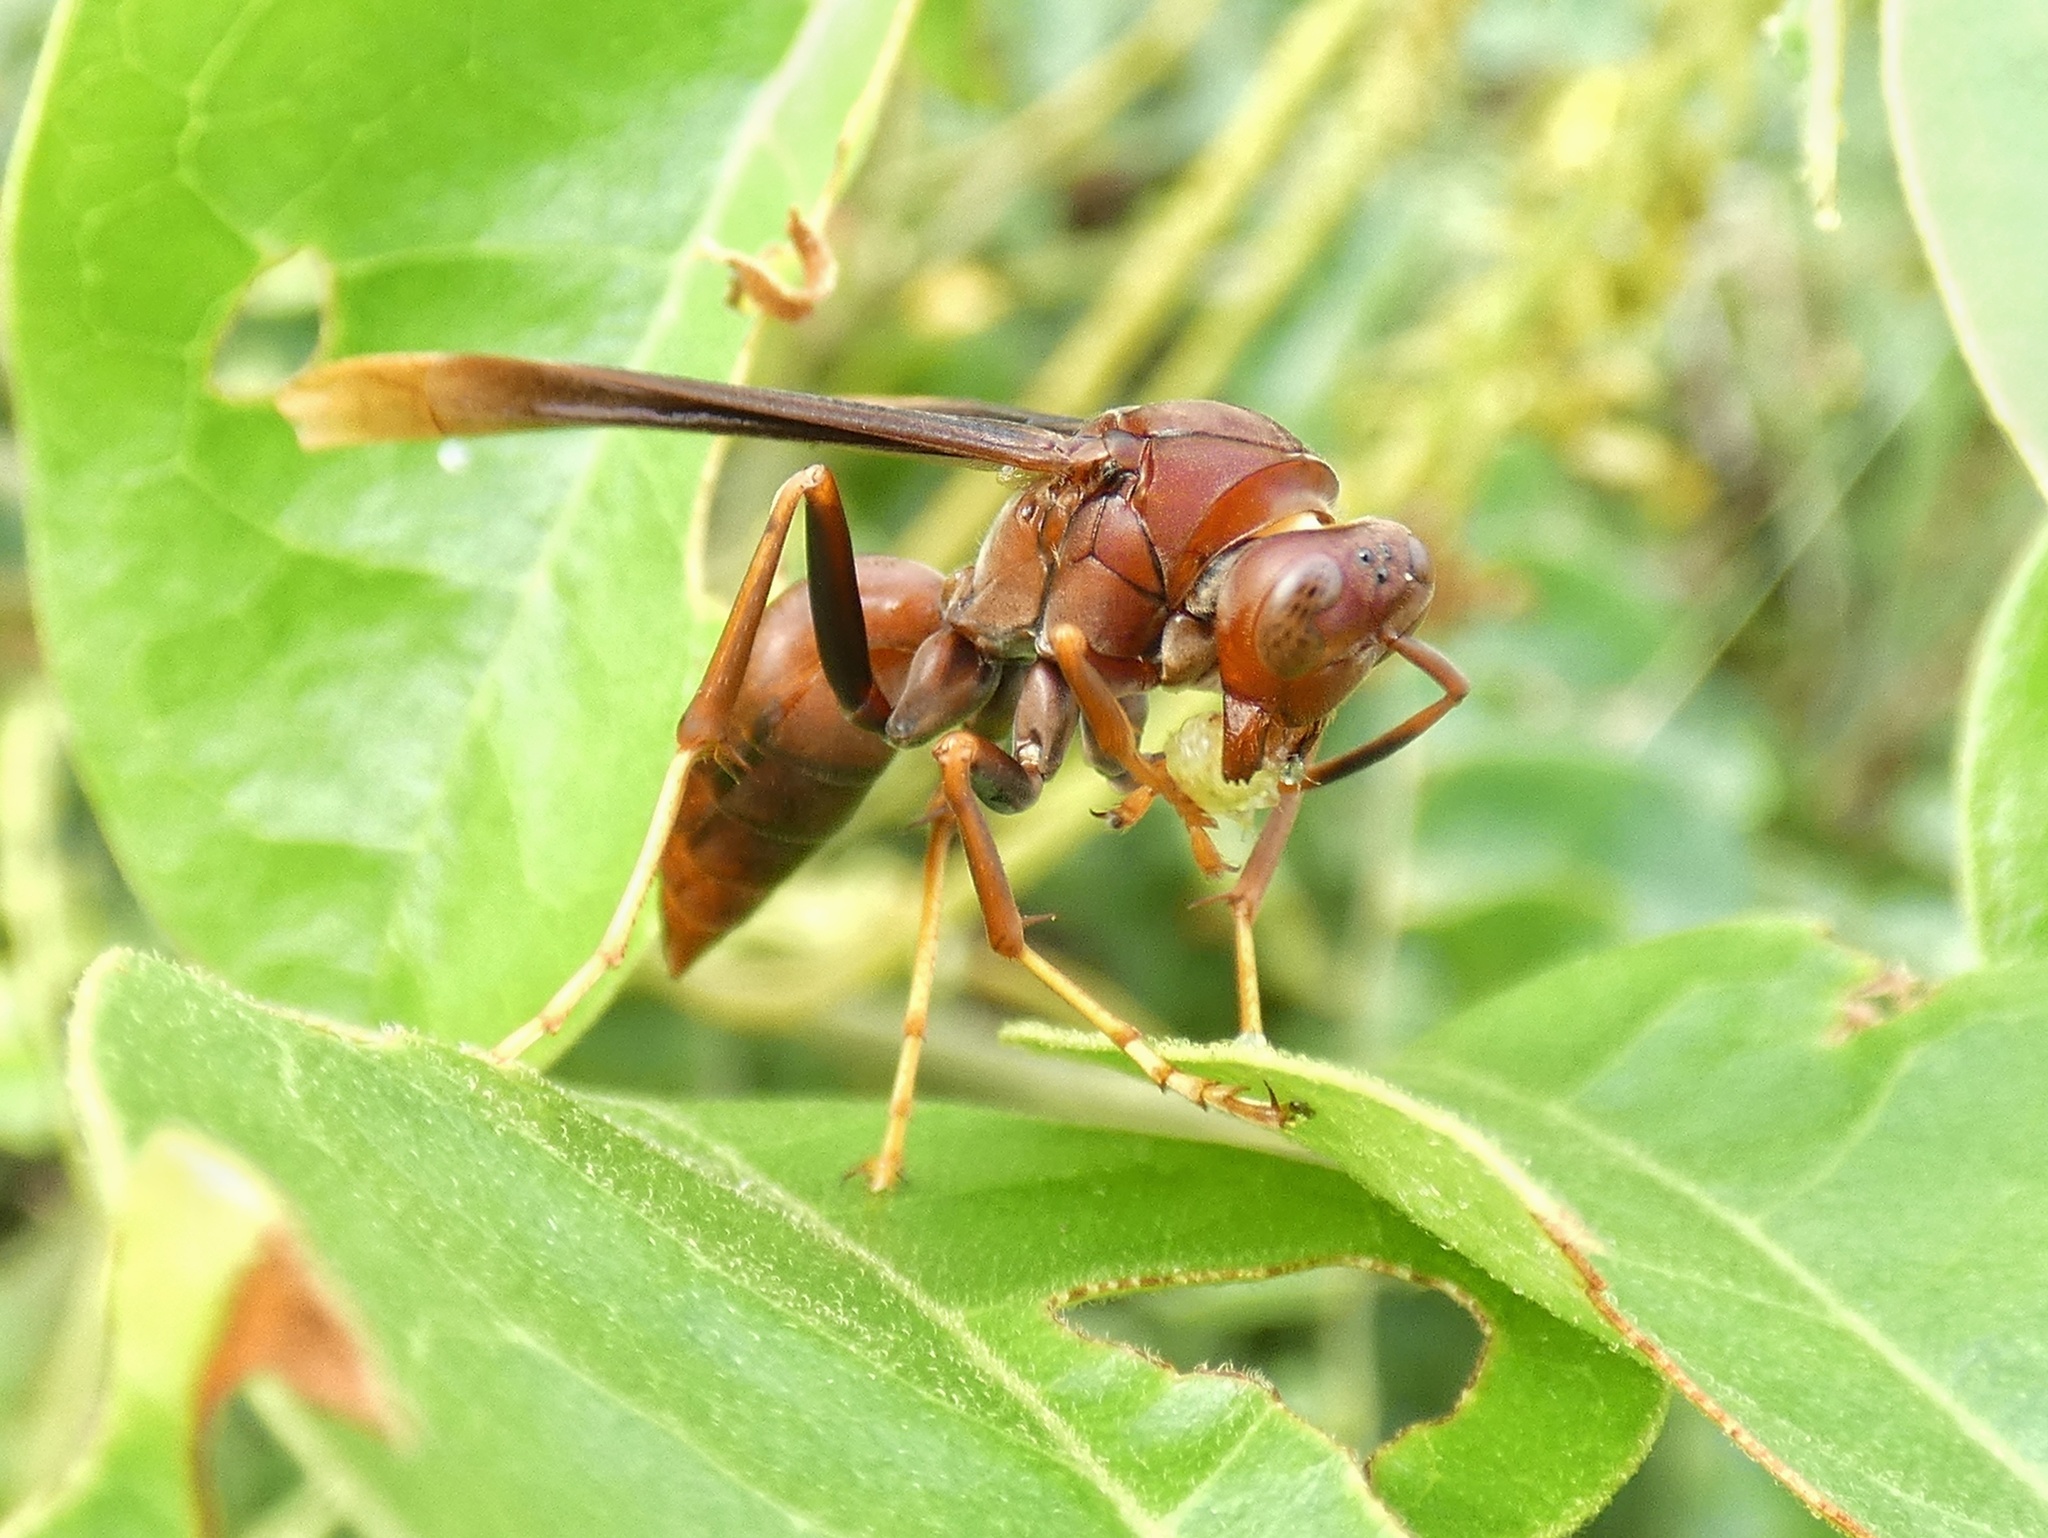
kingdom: Animalia
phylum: Arthropoda
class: Insecta
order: Hymenoptera
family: Eumenidae
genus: Polistes
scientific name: Polistes lanio
